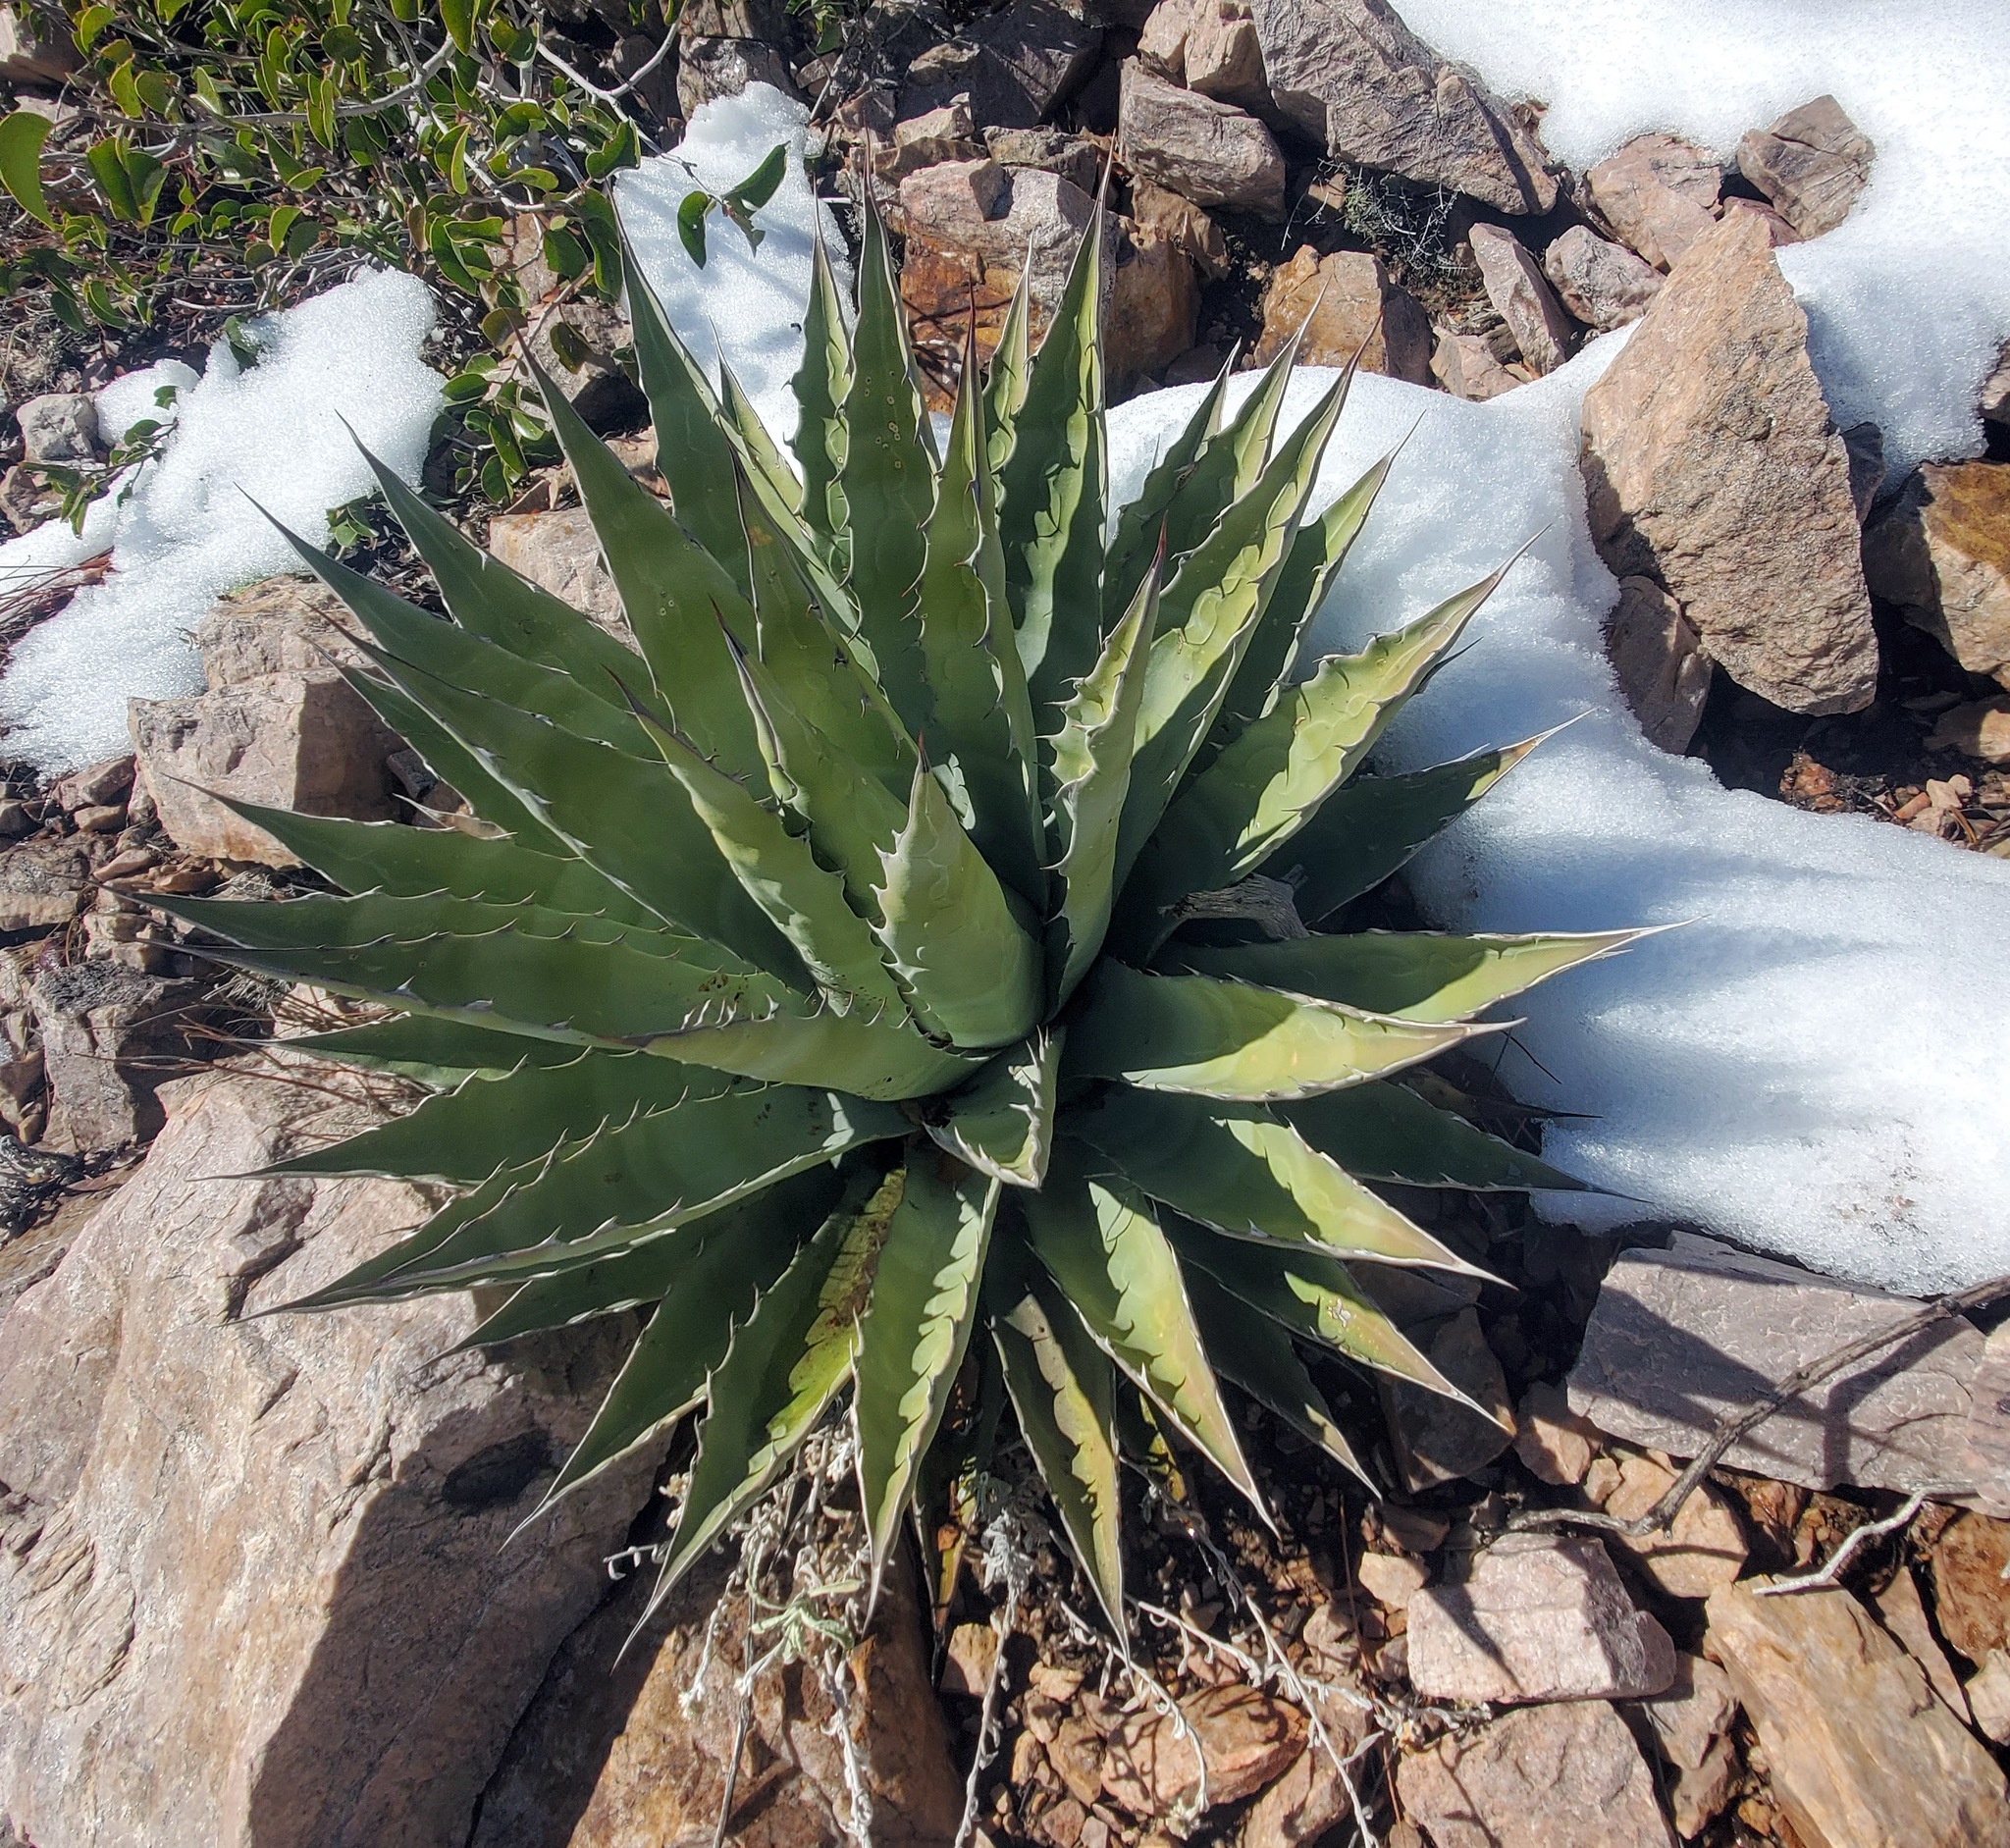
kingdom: Plantae
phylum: Tracheophyta
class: Liliopsida
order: Asparagales
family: Asparagaceae
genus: Agave
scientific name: Agave chrysantha
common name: Golden-flowered agave
